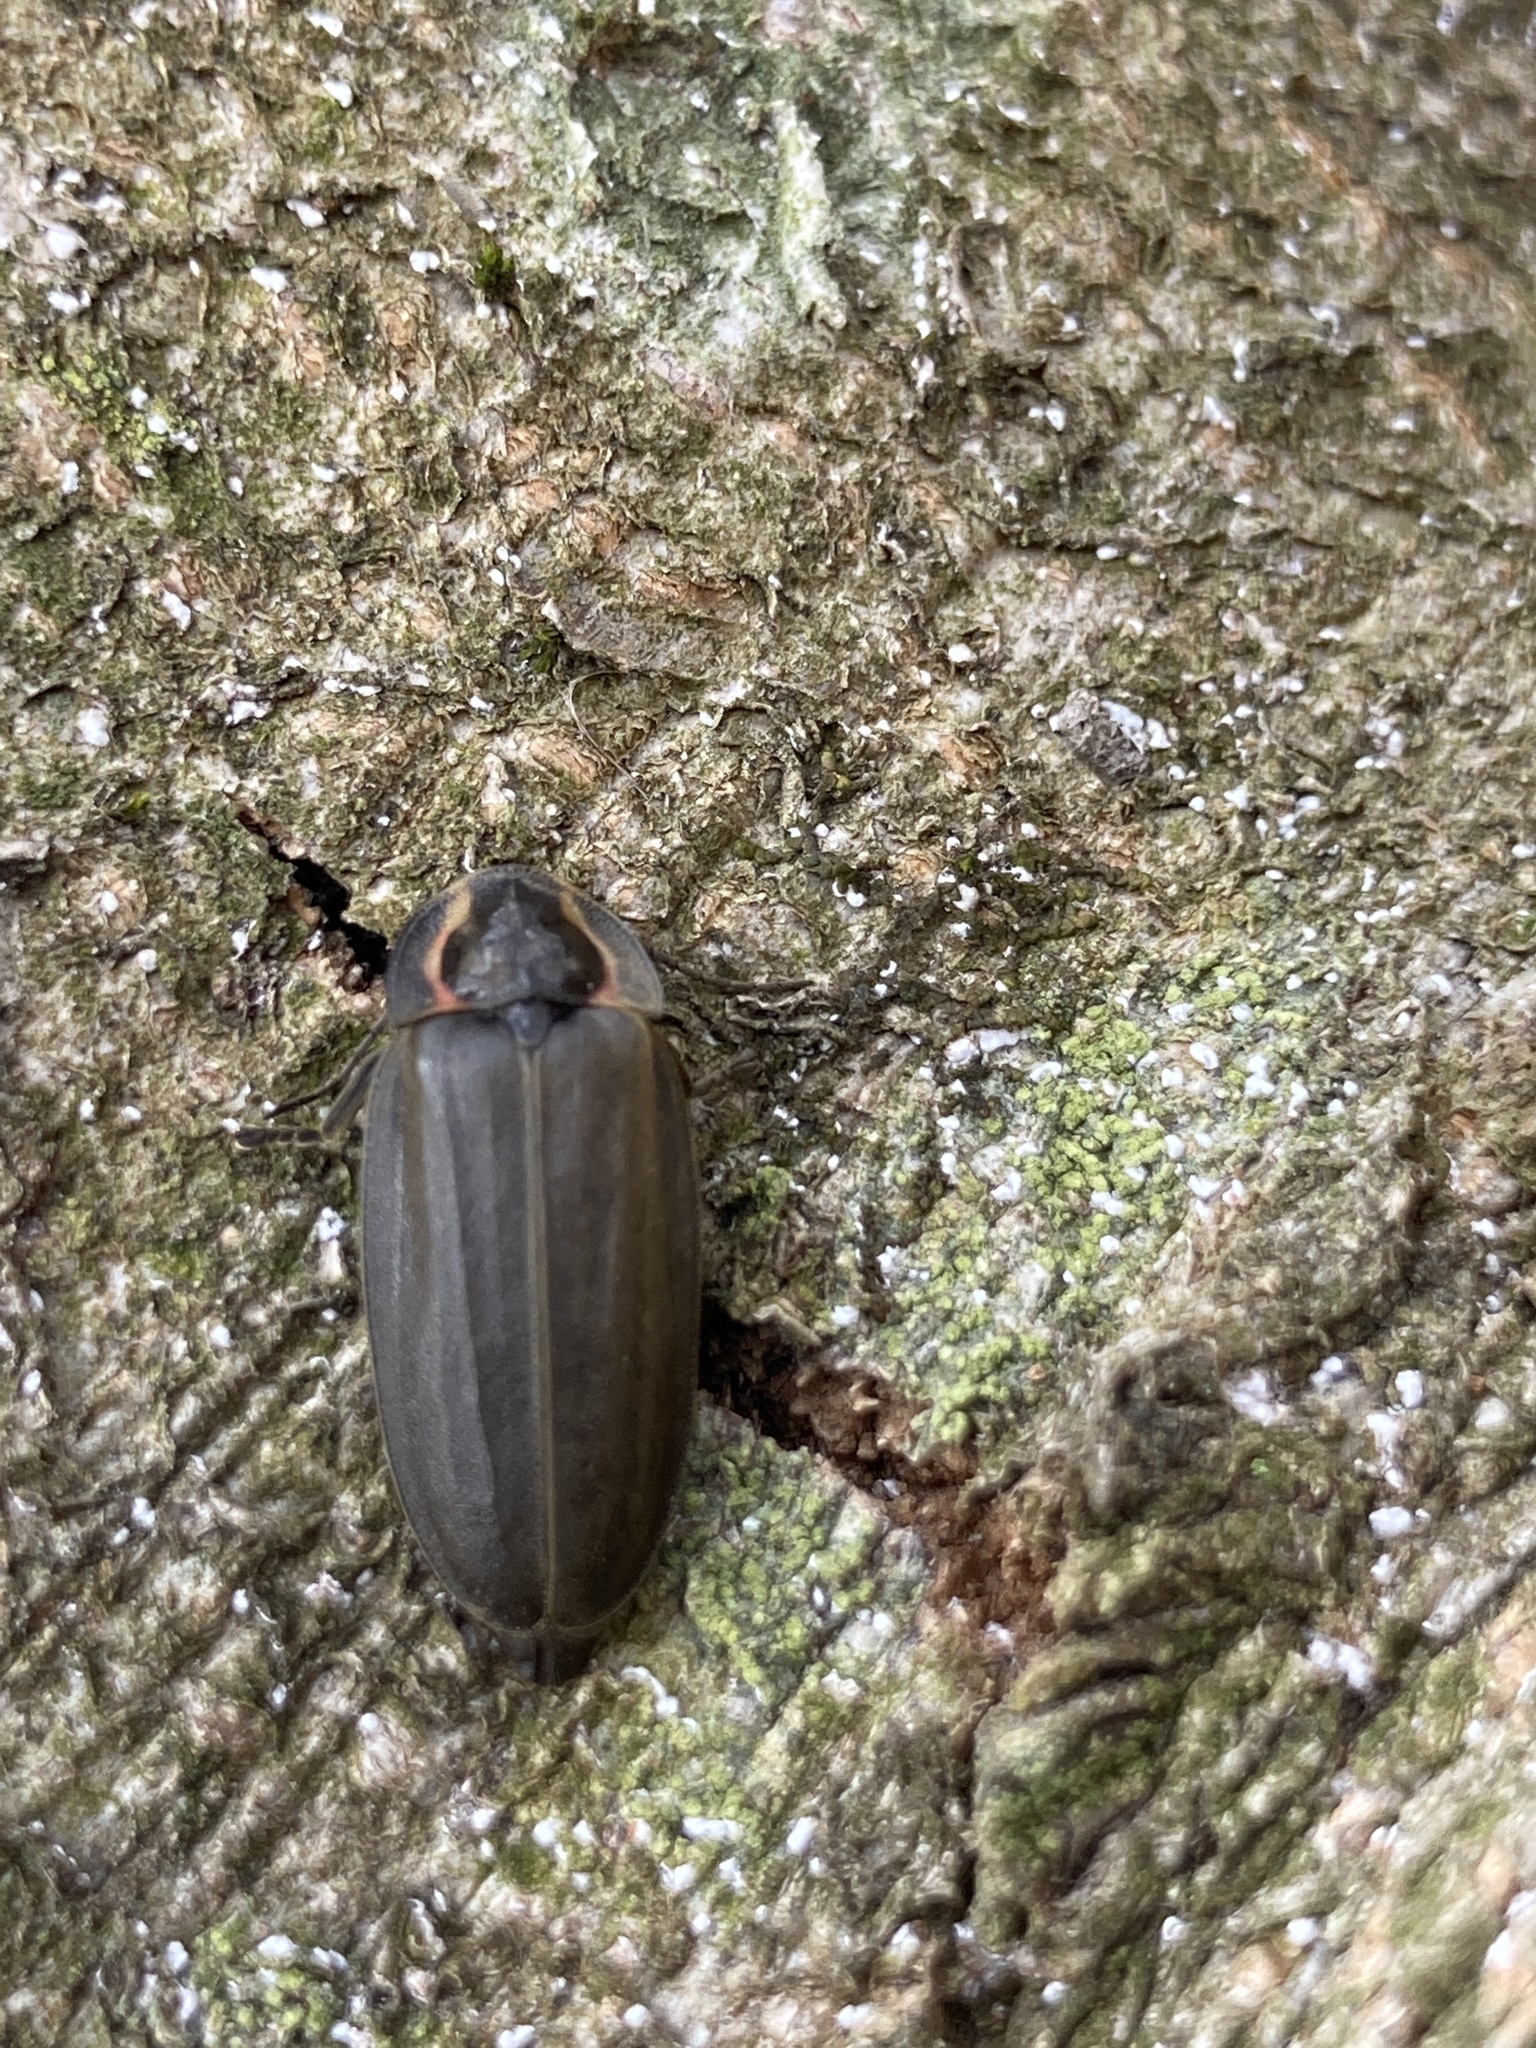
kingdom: Animalia
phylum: Arthropoda
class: Insecta
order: Coleoptera
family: Lampyridae
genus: Photinus
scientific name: Photinus corrusca
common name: Winter firefly
